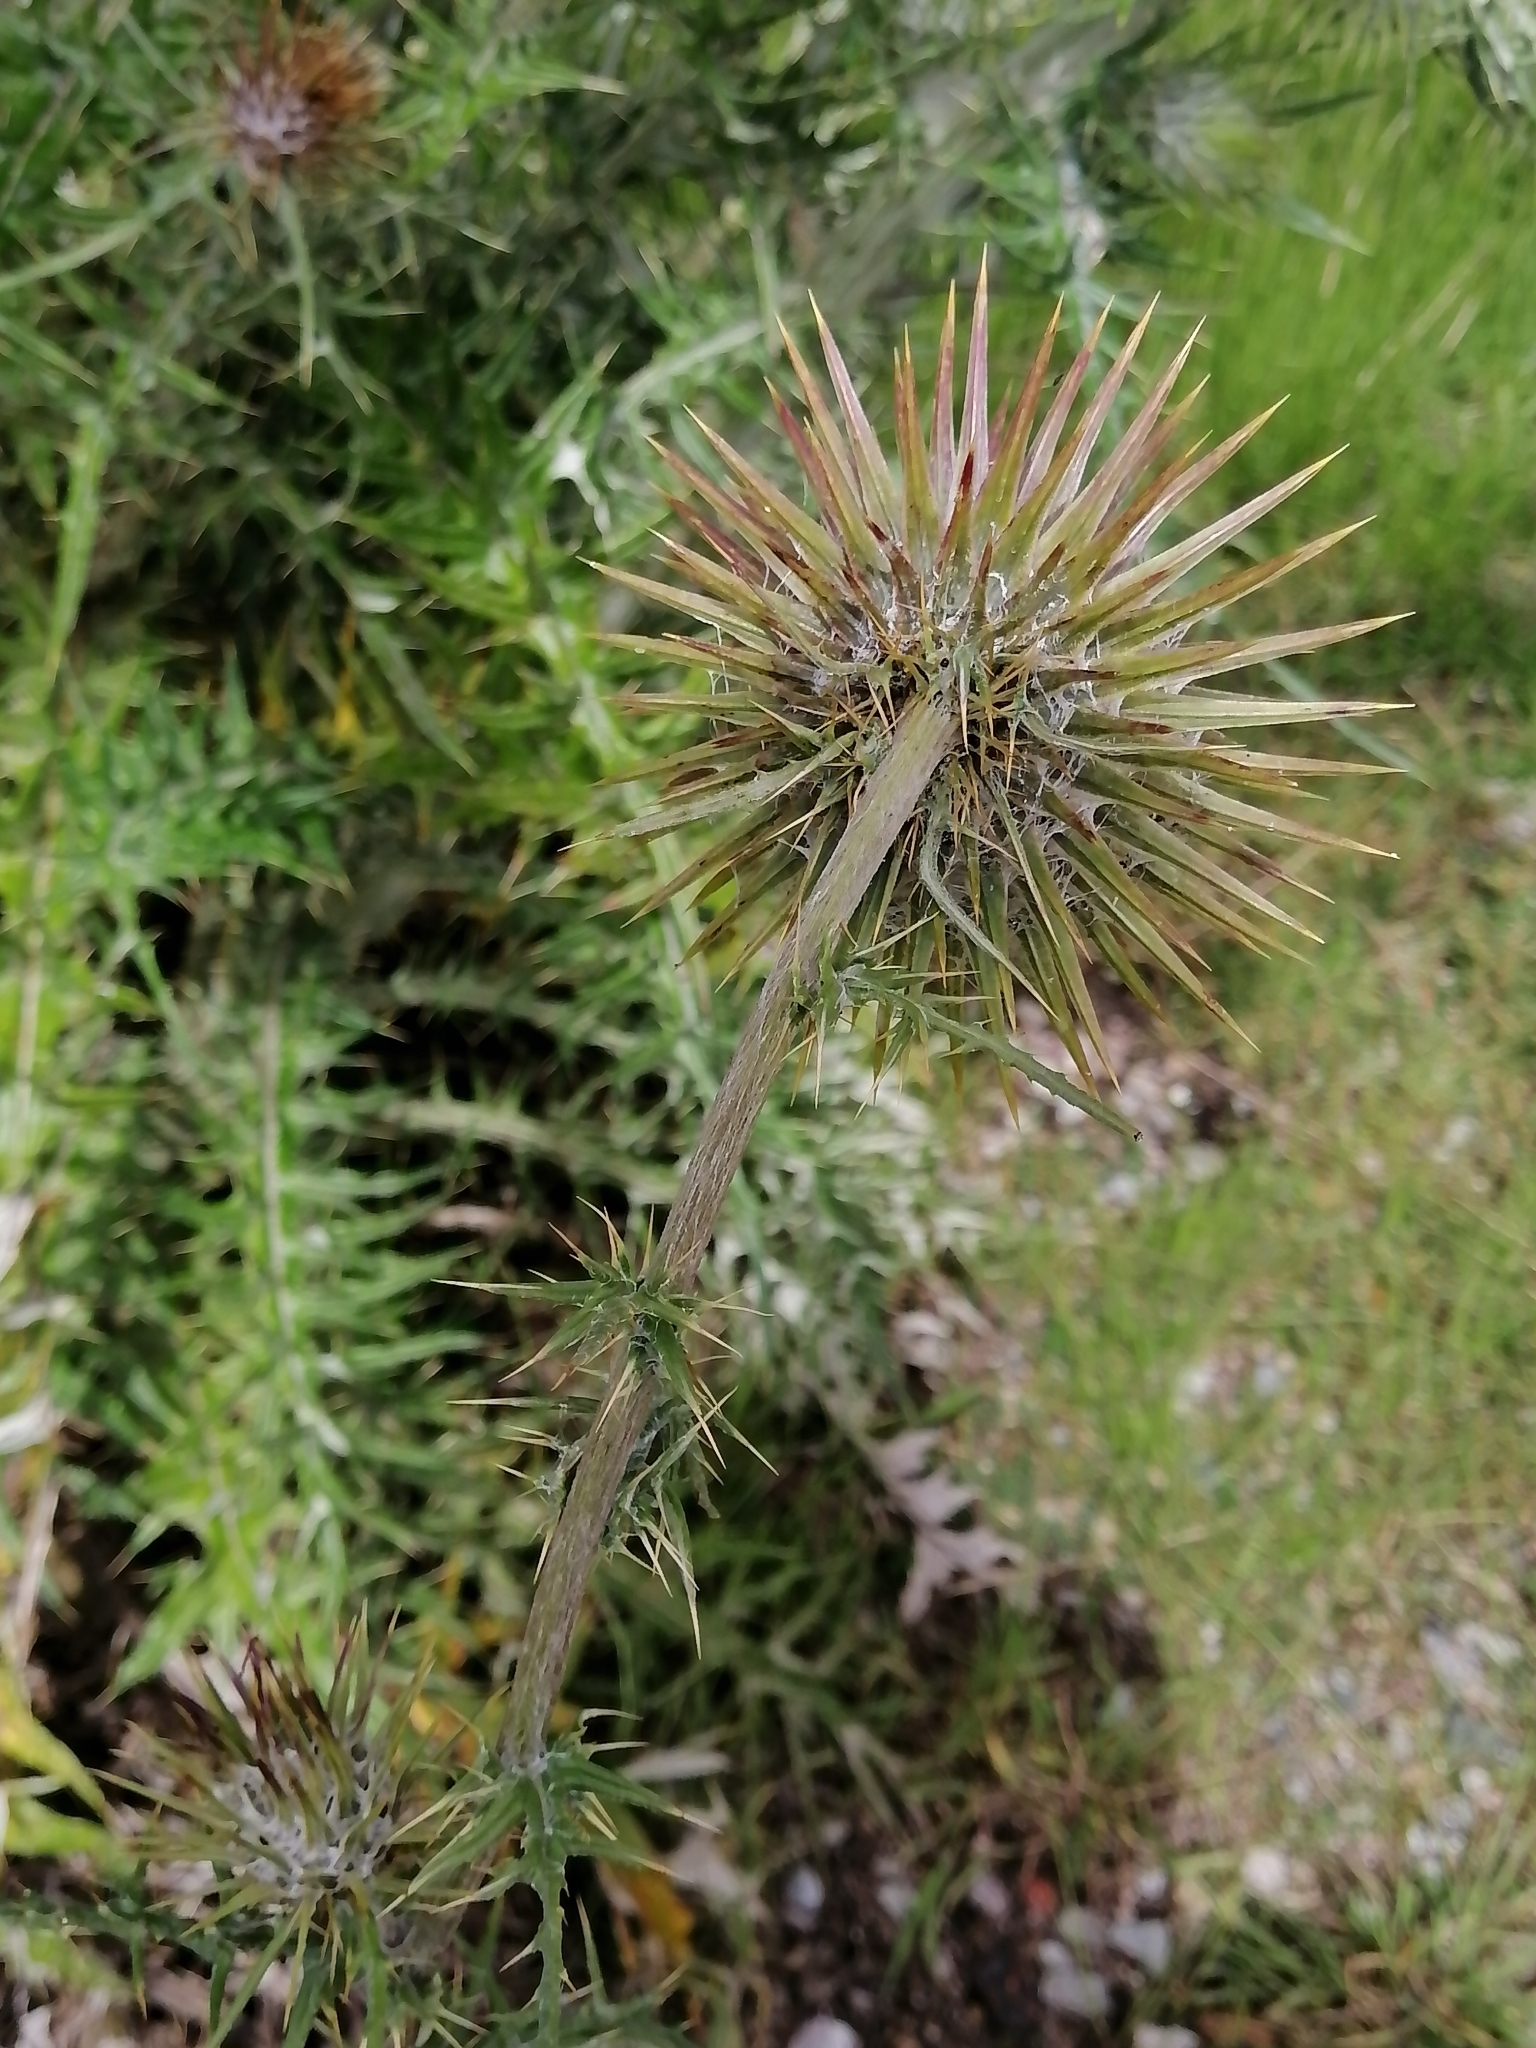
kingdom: Plantae
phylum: Tracheophyta
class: Magnoliopsida
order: Asterales
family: Asteraceae
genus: Cirsium
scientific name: Cirsium pinetorum
